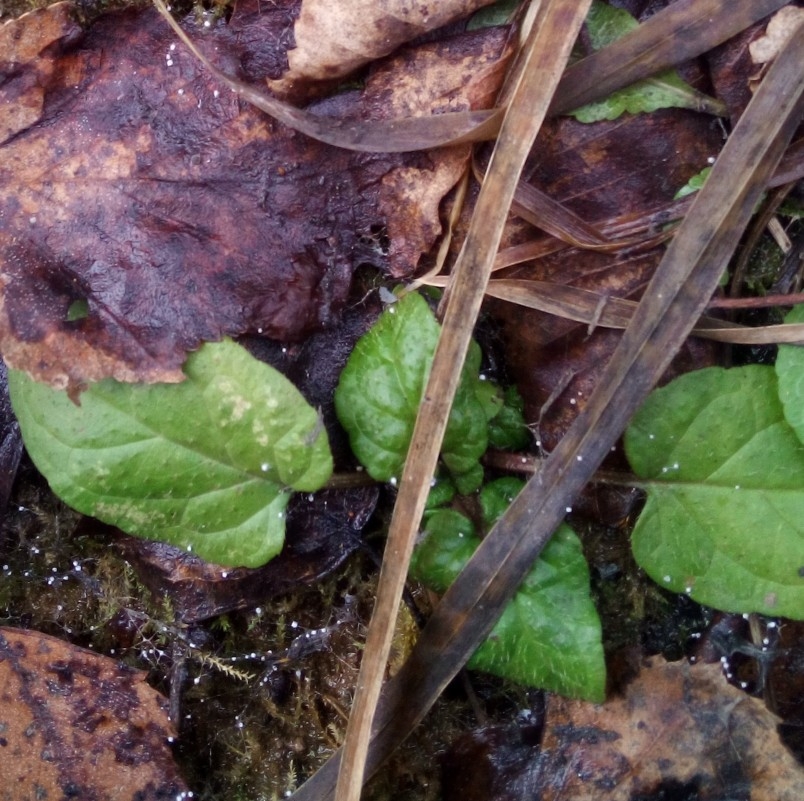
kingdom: Plantae
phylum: Tracheophyta
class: Magnoliopsida
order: Lamiales
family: Lamiaceae
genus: Prunella
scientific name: Prunella vulgaris
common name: Heal-all
